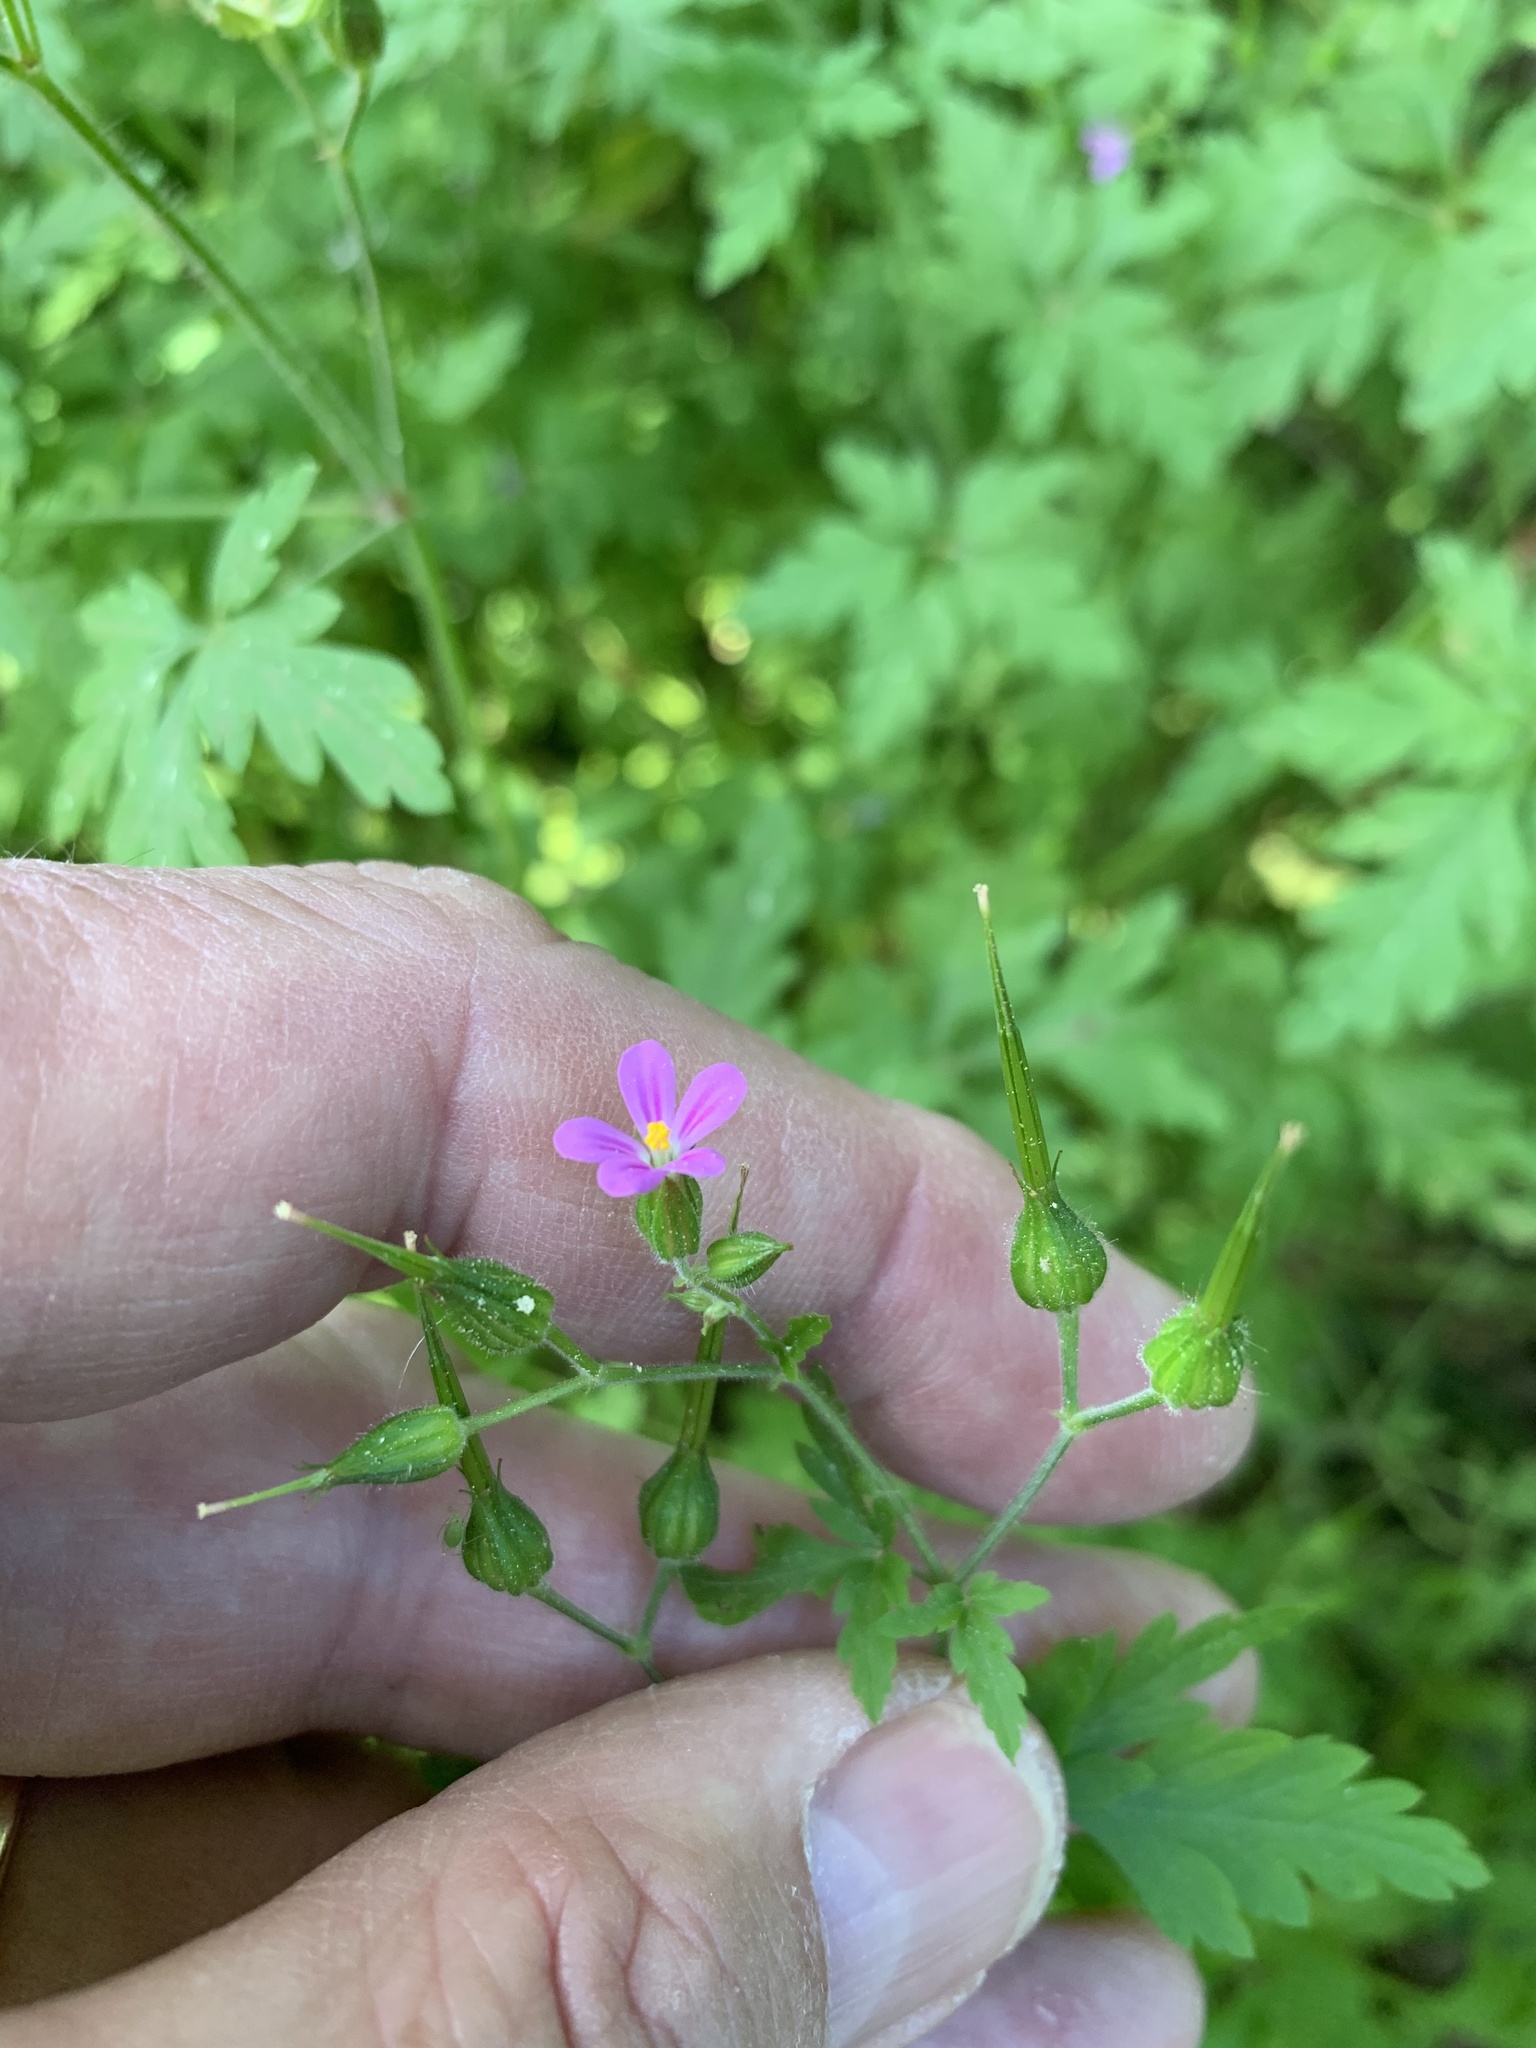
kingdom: Plantae
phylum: Tracheophyta
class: Magnoliopsida
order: Geraniales
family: Geraniaceae
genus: Geranium
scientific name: Geranium purpureum
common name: Little-robin
